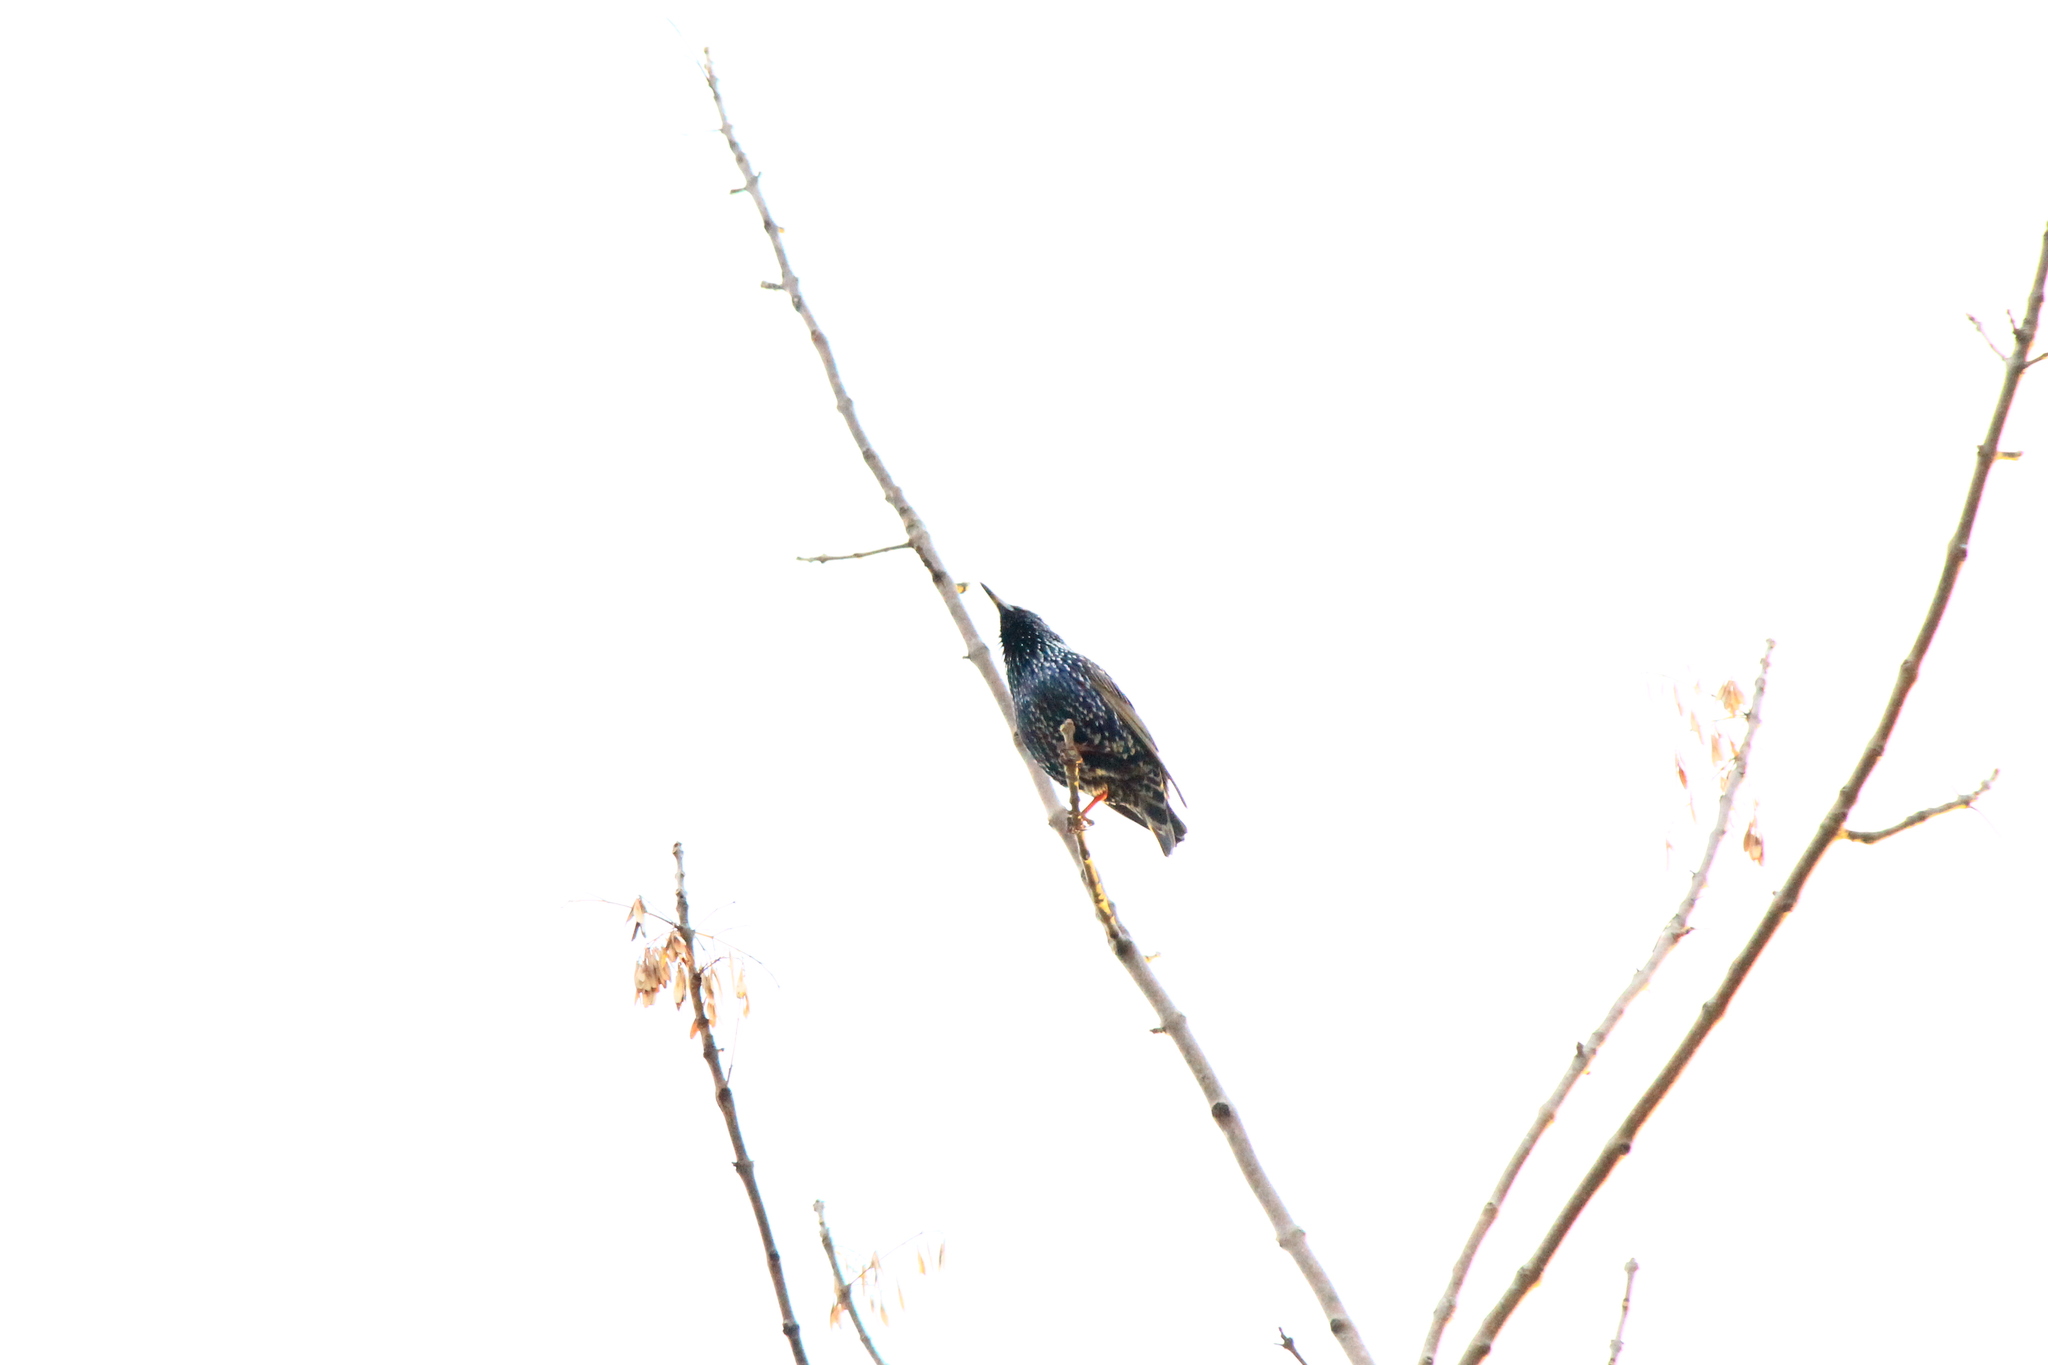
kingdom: Animalia
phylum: Chordata
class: Aves
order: Passeriformes
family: Sturnidae
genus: Sturnus
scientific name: Sturnus vulgaris
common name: Common starling
